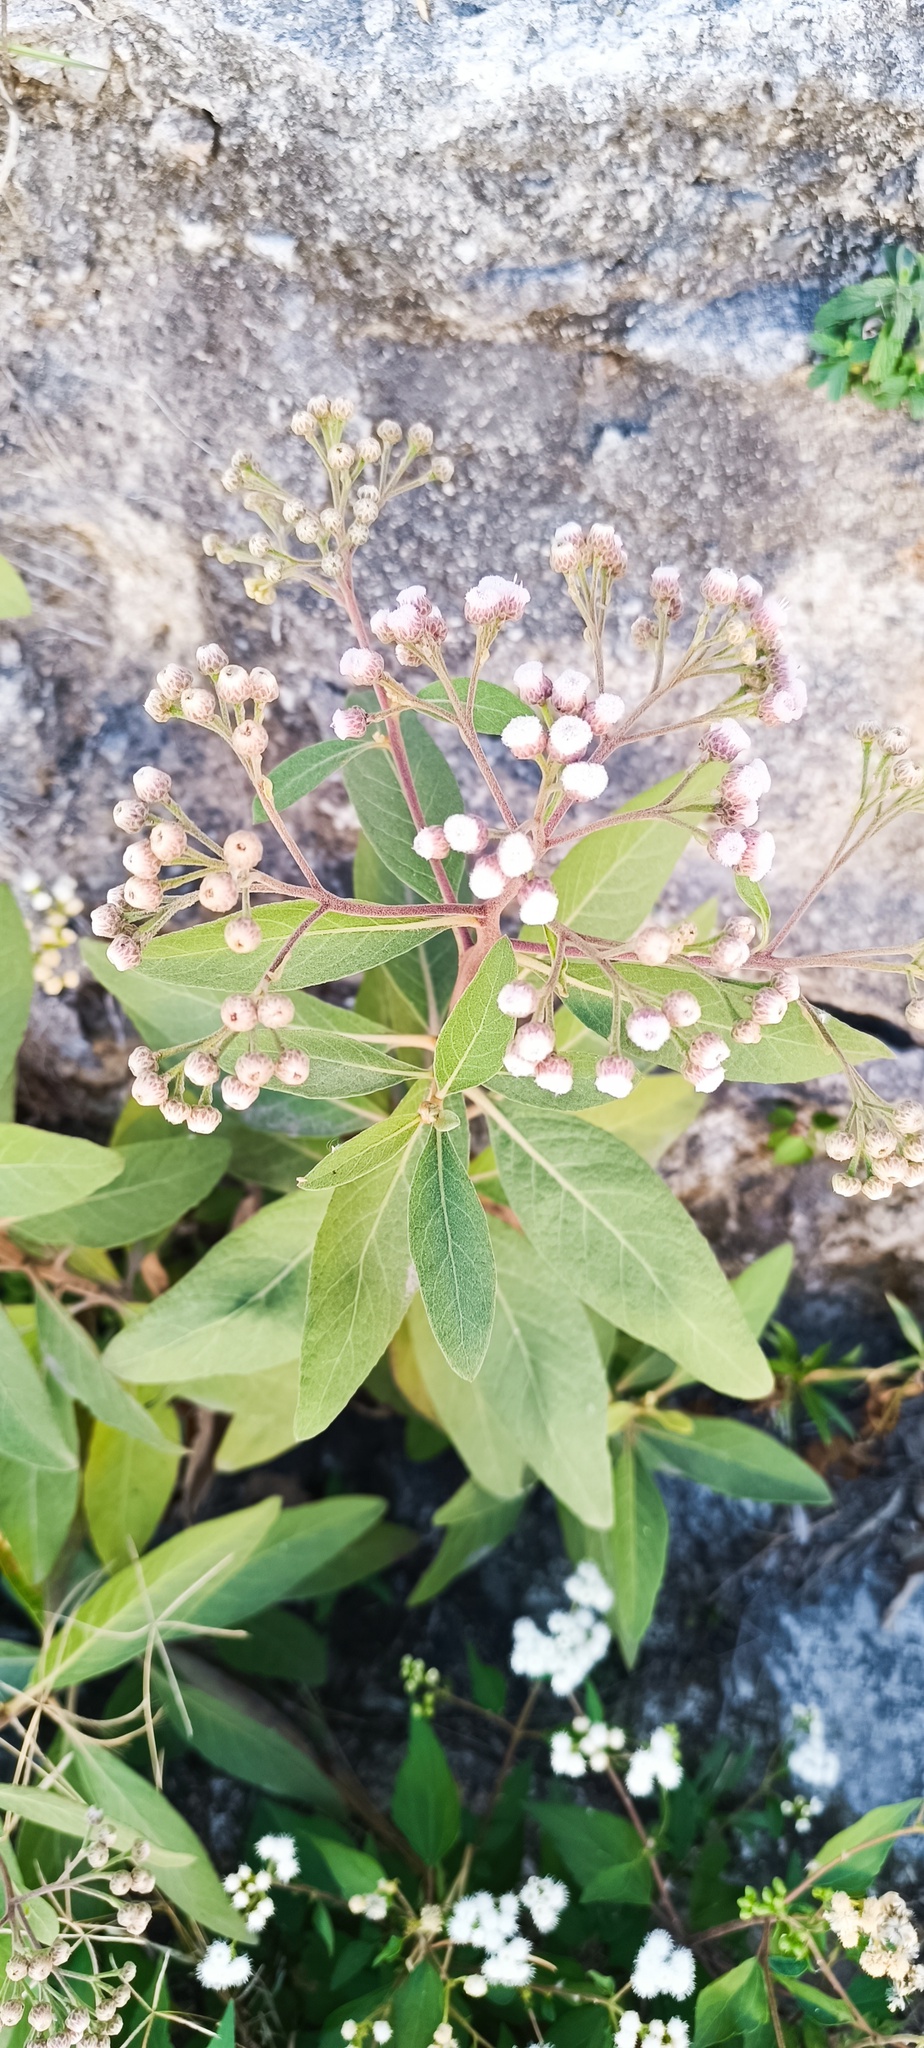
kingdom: Plantae
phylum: Tracheophyta
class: Magnoliopsida
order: Asterales
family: Asteraceae
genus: Pluchea
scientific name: Pluchea carolinensis
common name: Marsh fleabane
